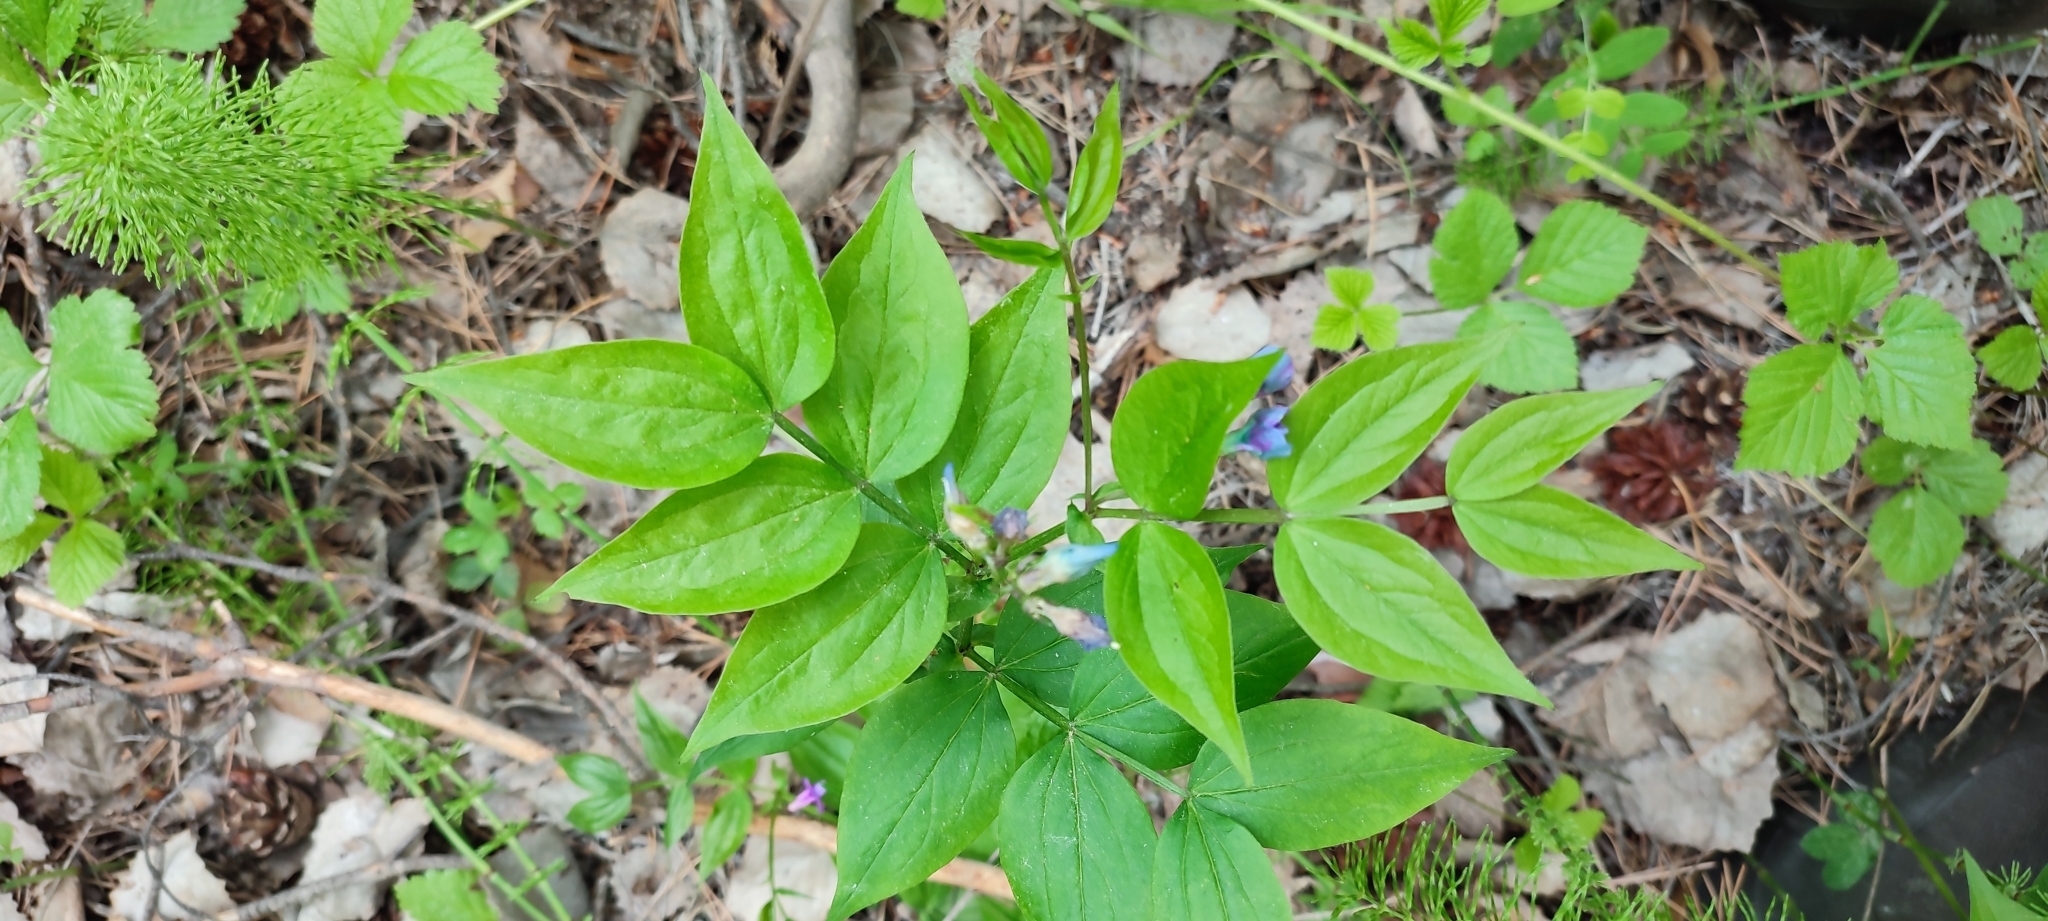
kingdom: Plantae
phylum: Tracheophyta
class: Magnoliopsida
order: Fabales
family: Fabaceae
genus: Lathyrus
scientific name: Lathyrus vernus
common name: Spring pea
